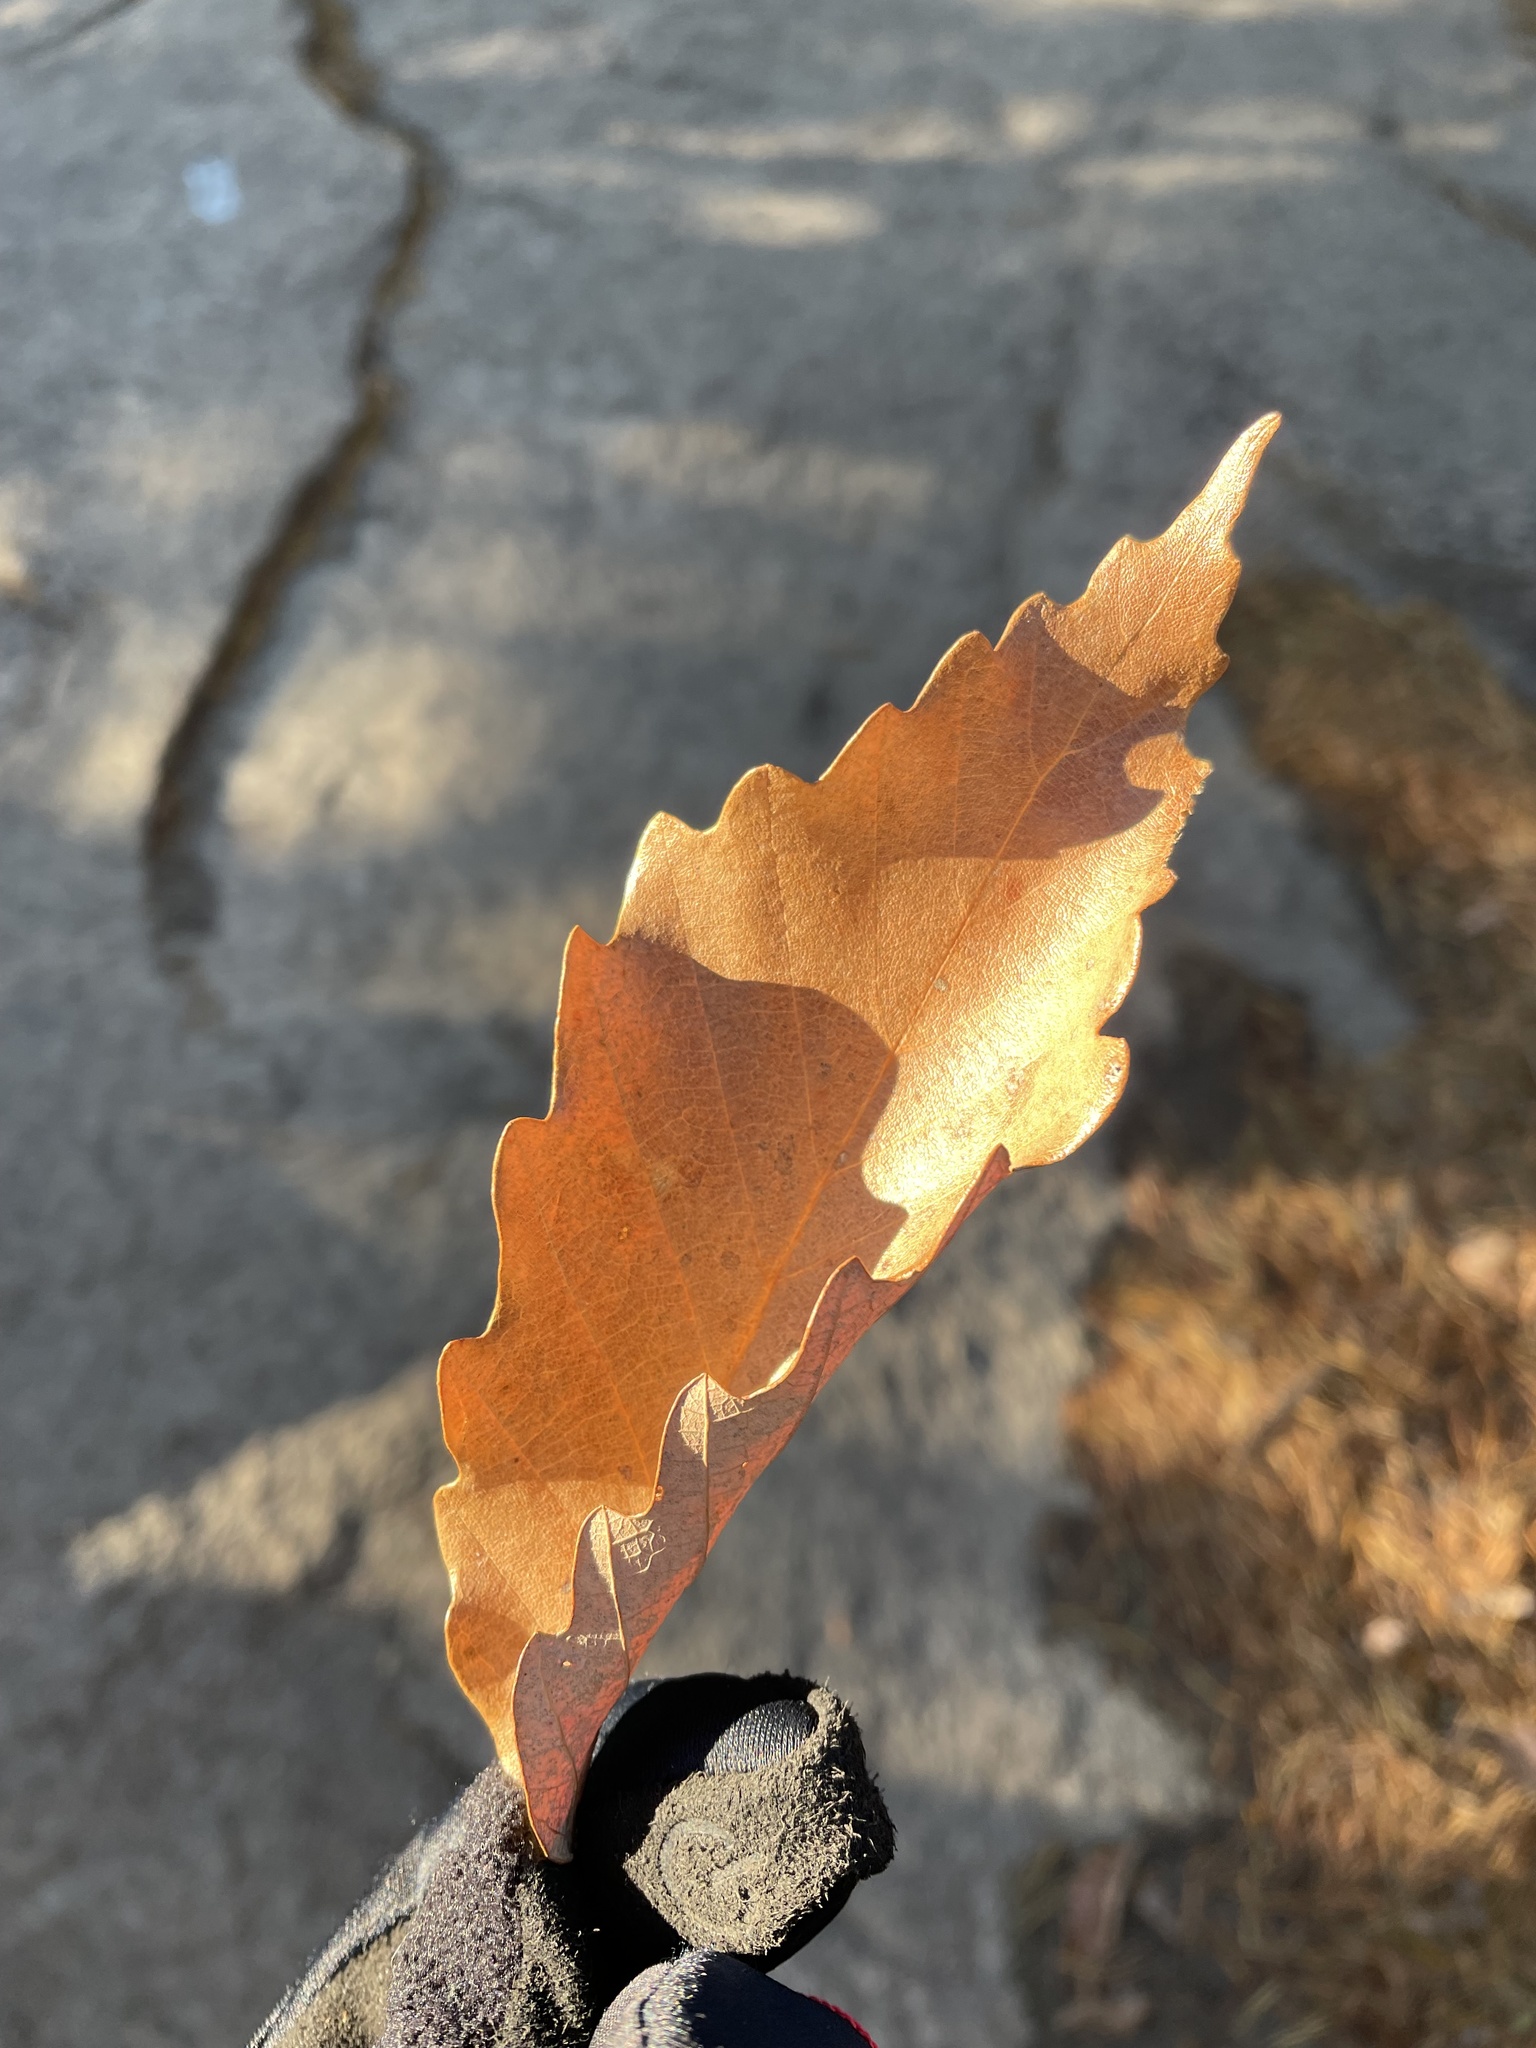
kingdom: Plantae
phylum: Tracheophyta
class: Magnoliopsida
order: Fagales
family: Fagaceae
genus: Quercus
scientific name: Quercus montana
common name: Chestnut oak
